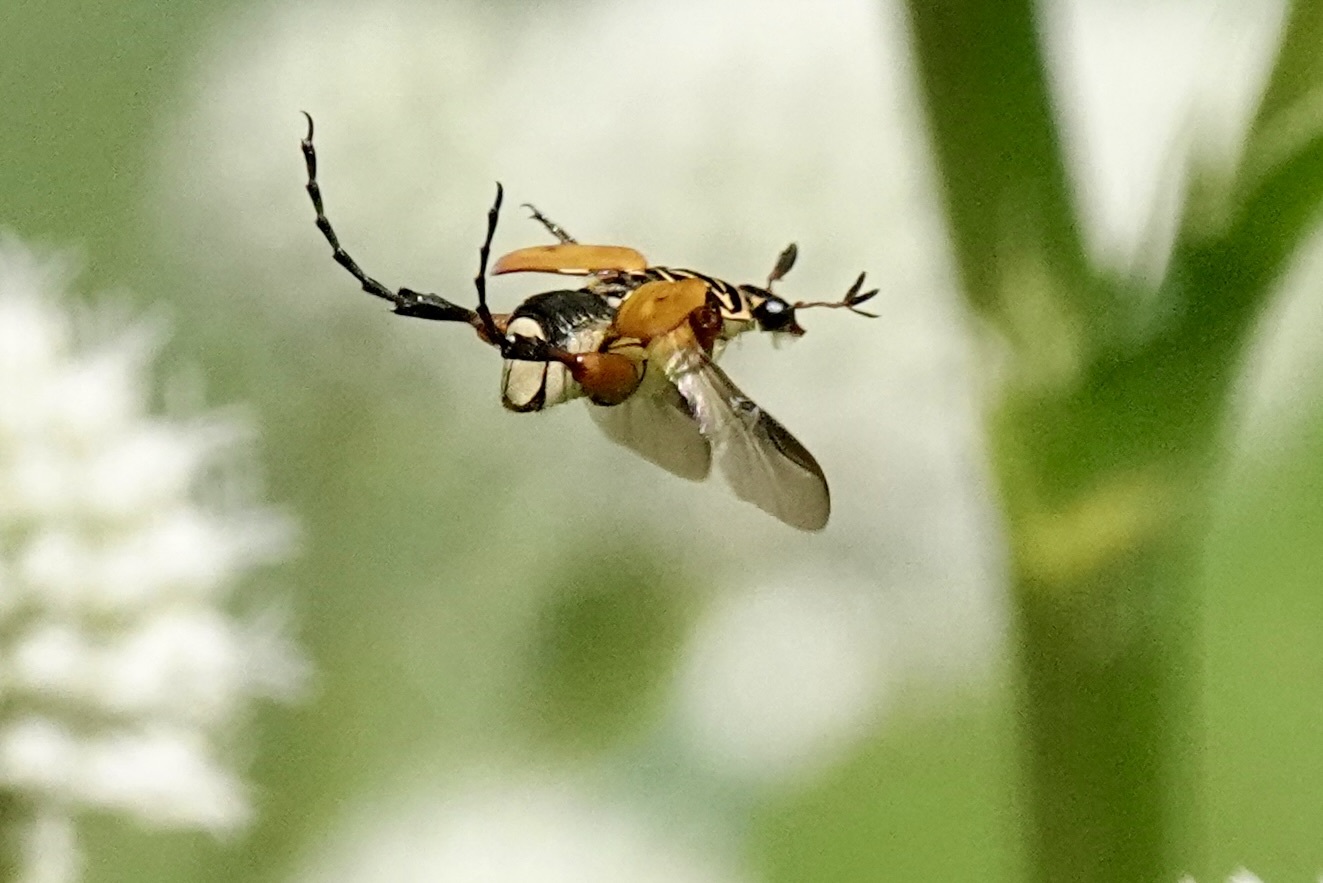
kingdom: Animalia
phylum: Arthropoda
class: Insecta
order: Coleoptera
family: Scarabaeidae
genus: Trigonopeltastes
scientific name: Trigonopeltastes delta
